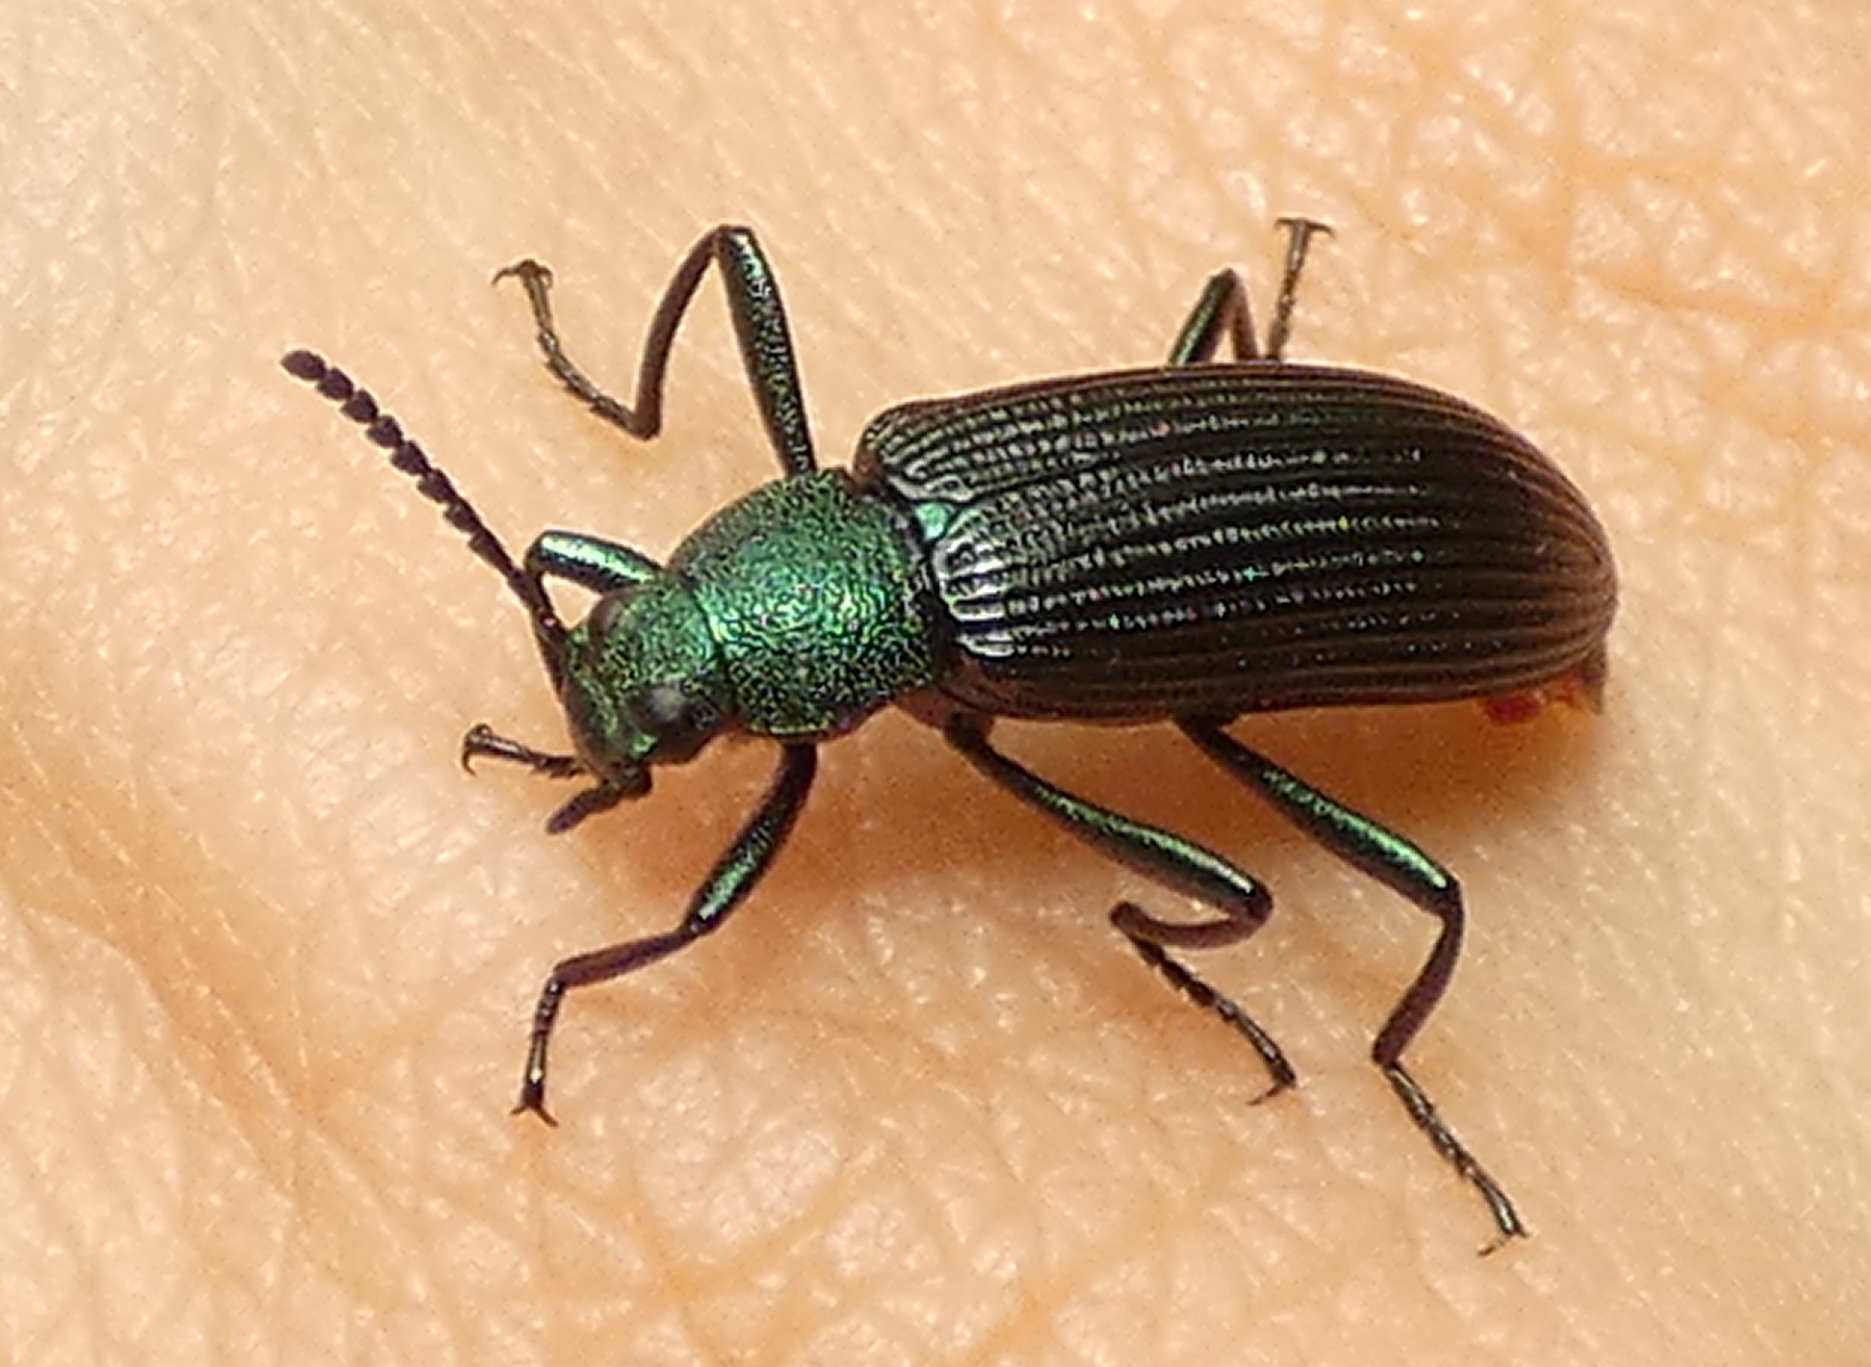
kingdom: Animalia
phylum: Arthropoda
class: Insecta
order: Coleoptera
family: Tenebrionidae
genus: Strongylium
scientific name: Strongylium
